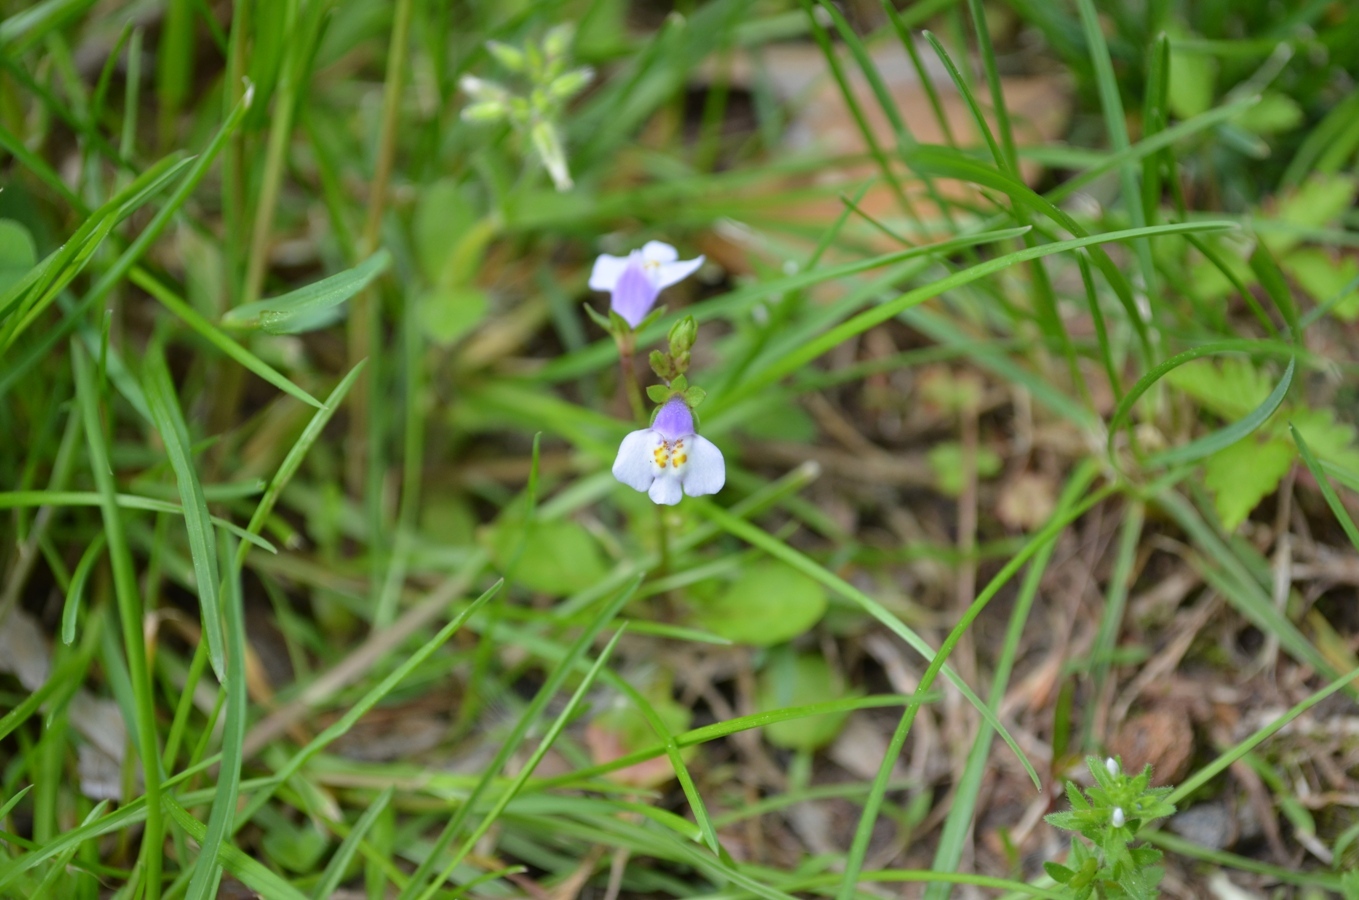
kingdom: Plantae
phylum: Tracheophyta
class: Magnoliopsida
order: Lamiales
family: Mazaceae
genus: Mazus
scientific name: Mazus pumilus
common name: Japanese mazus
